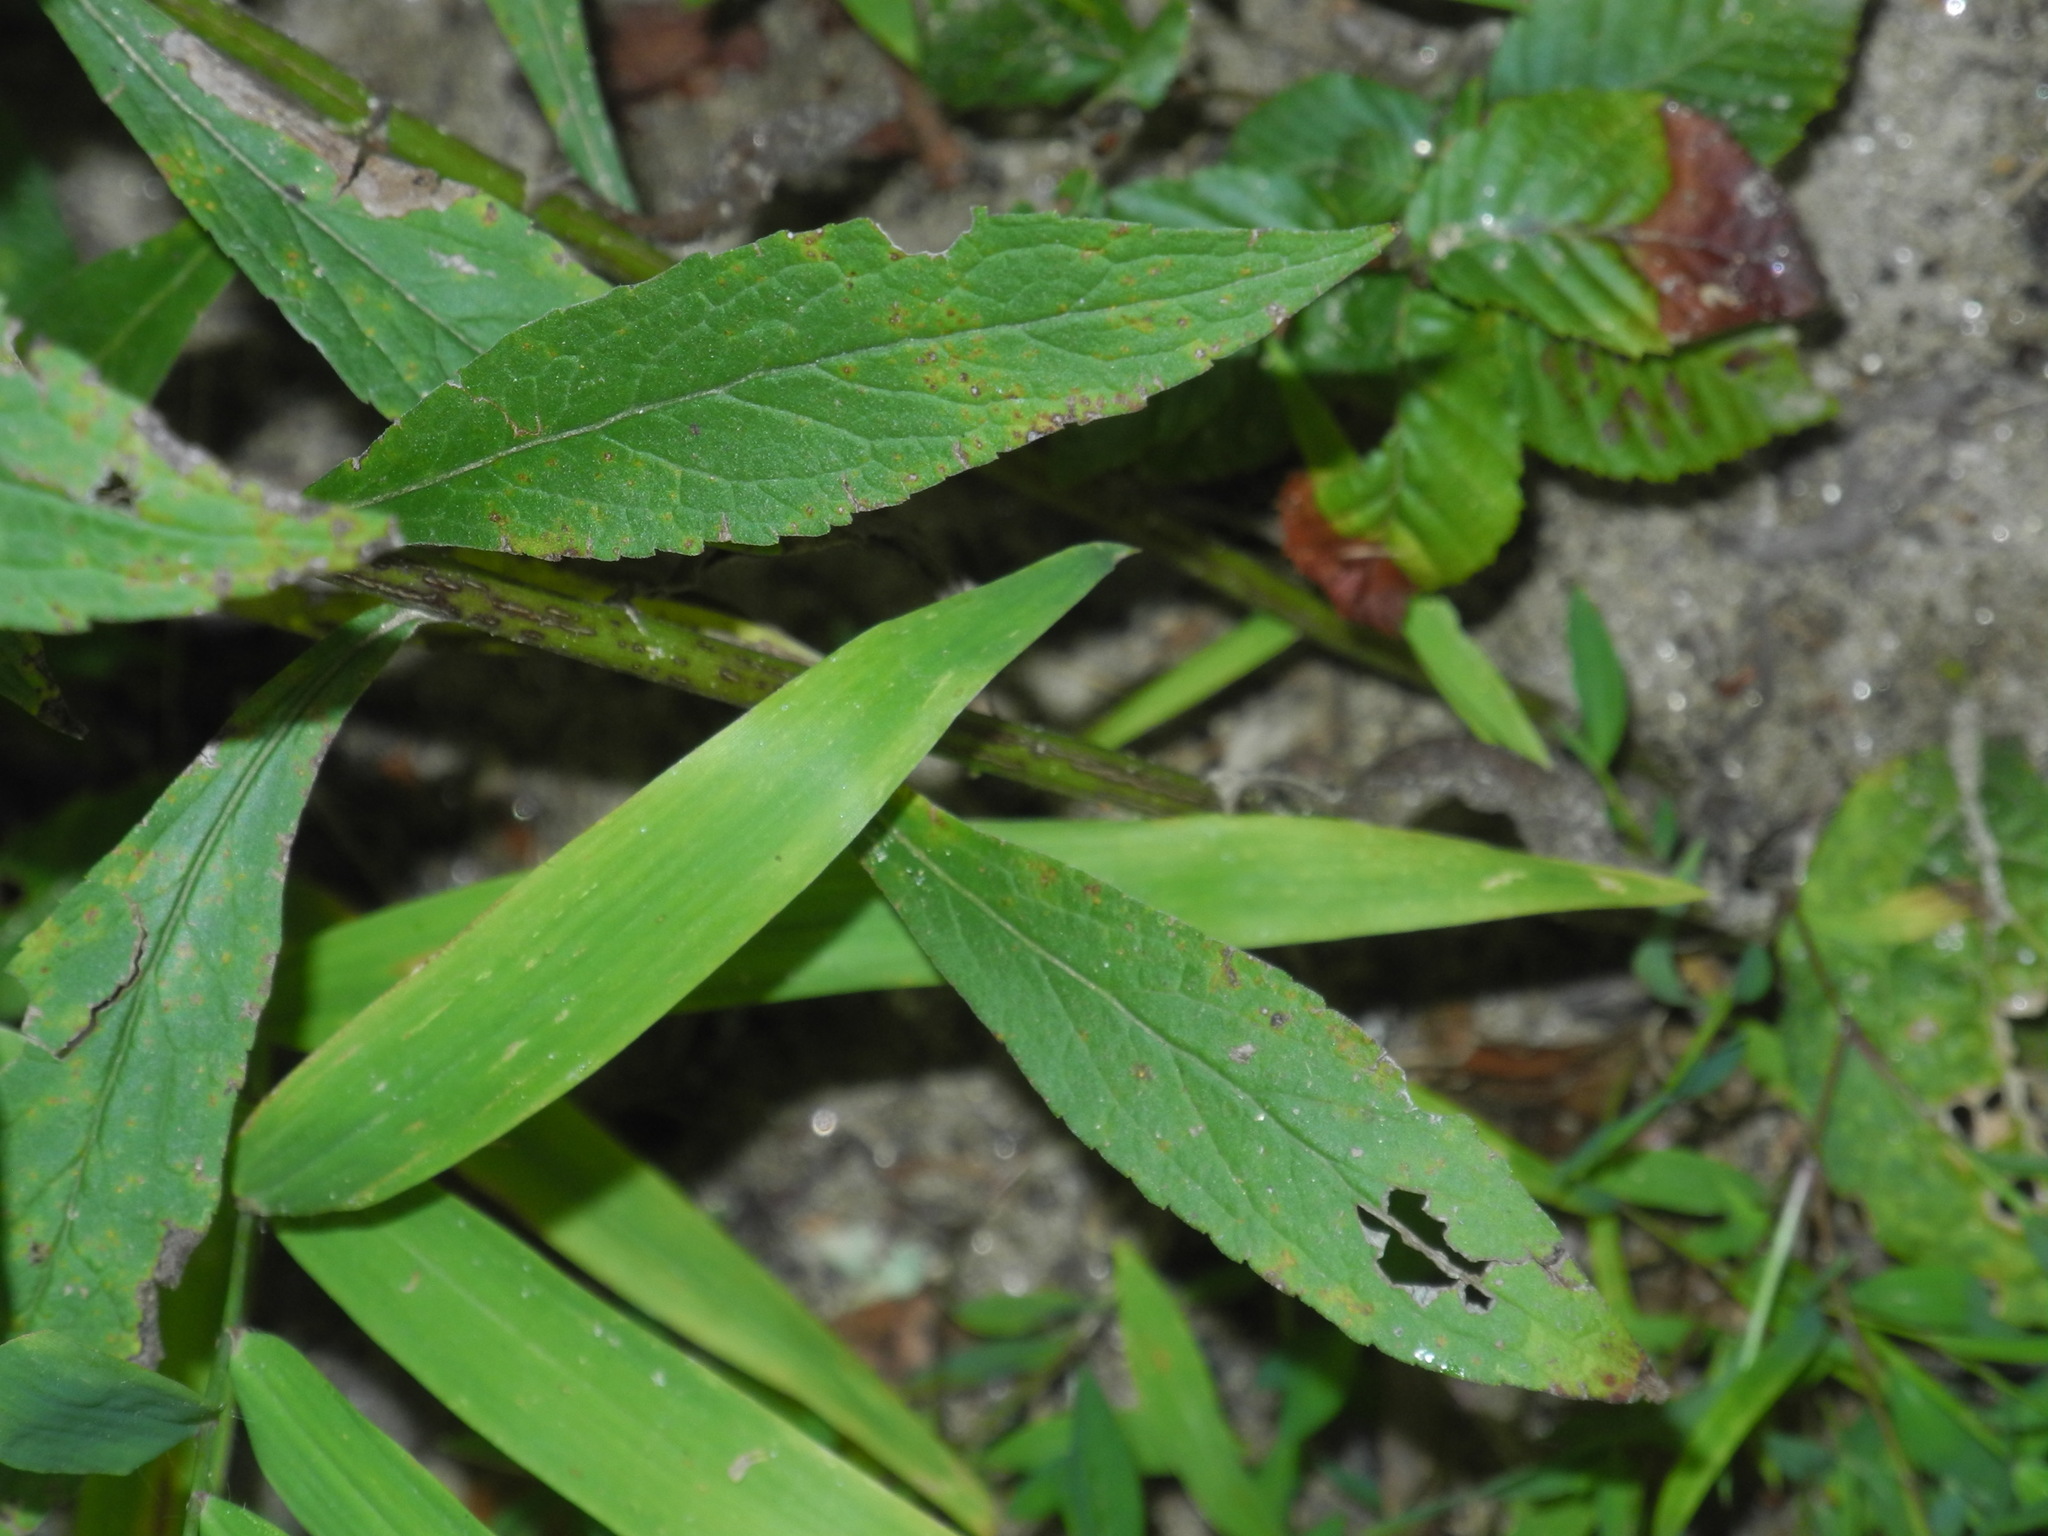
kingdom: Plantae
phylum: Tracheophyta
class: Magnoliopsida
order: Asterales
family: Asteraceae
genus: Solidago
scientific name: Solidago rugosa
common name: Rough-stemmed goldenrod
